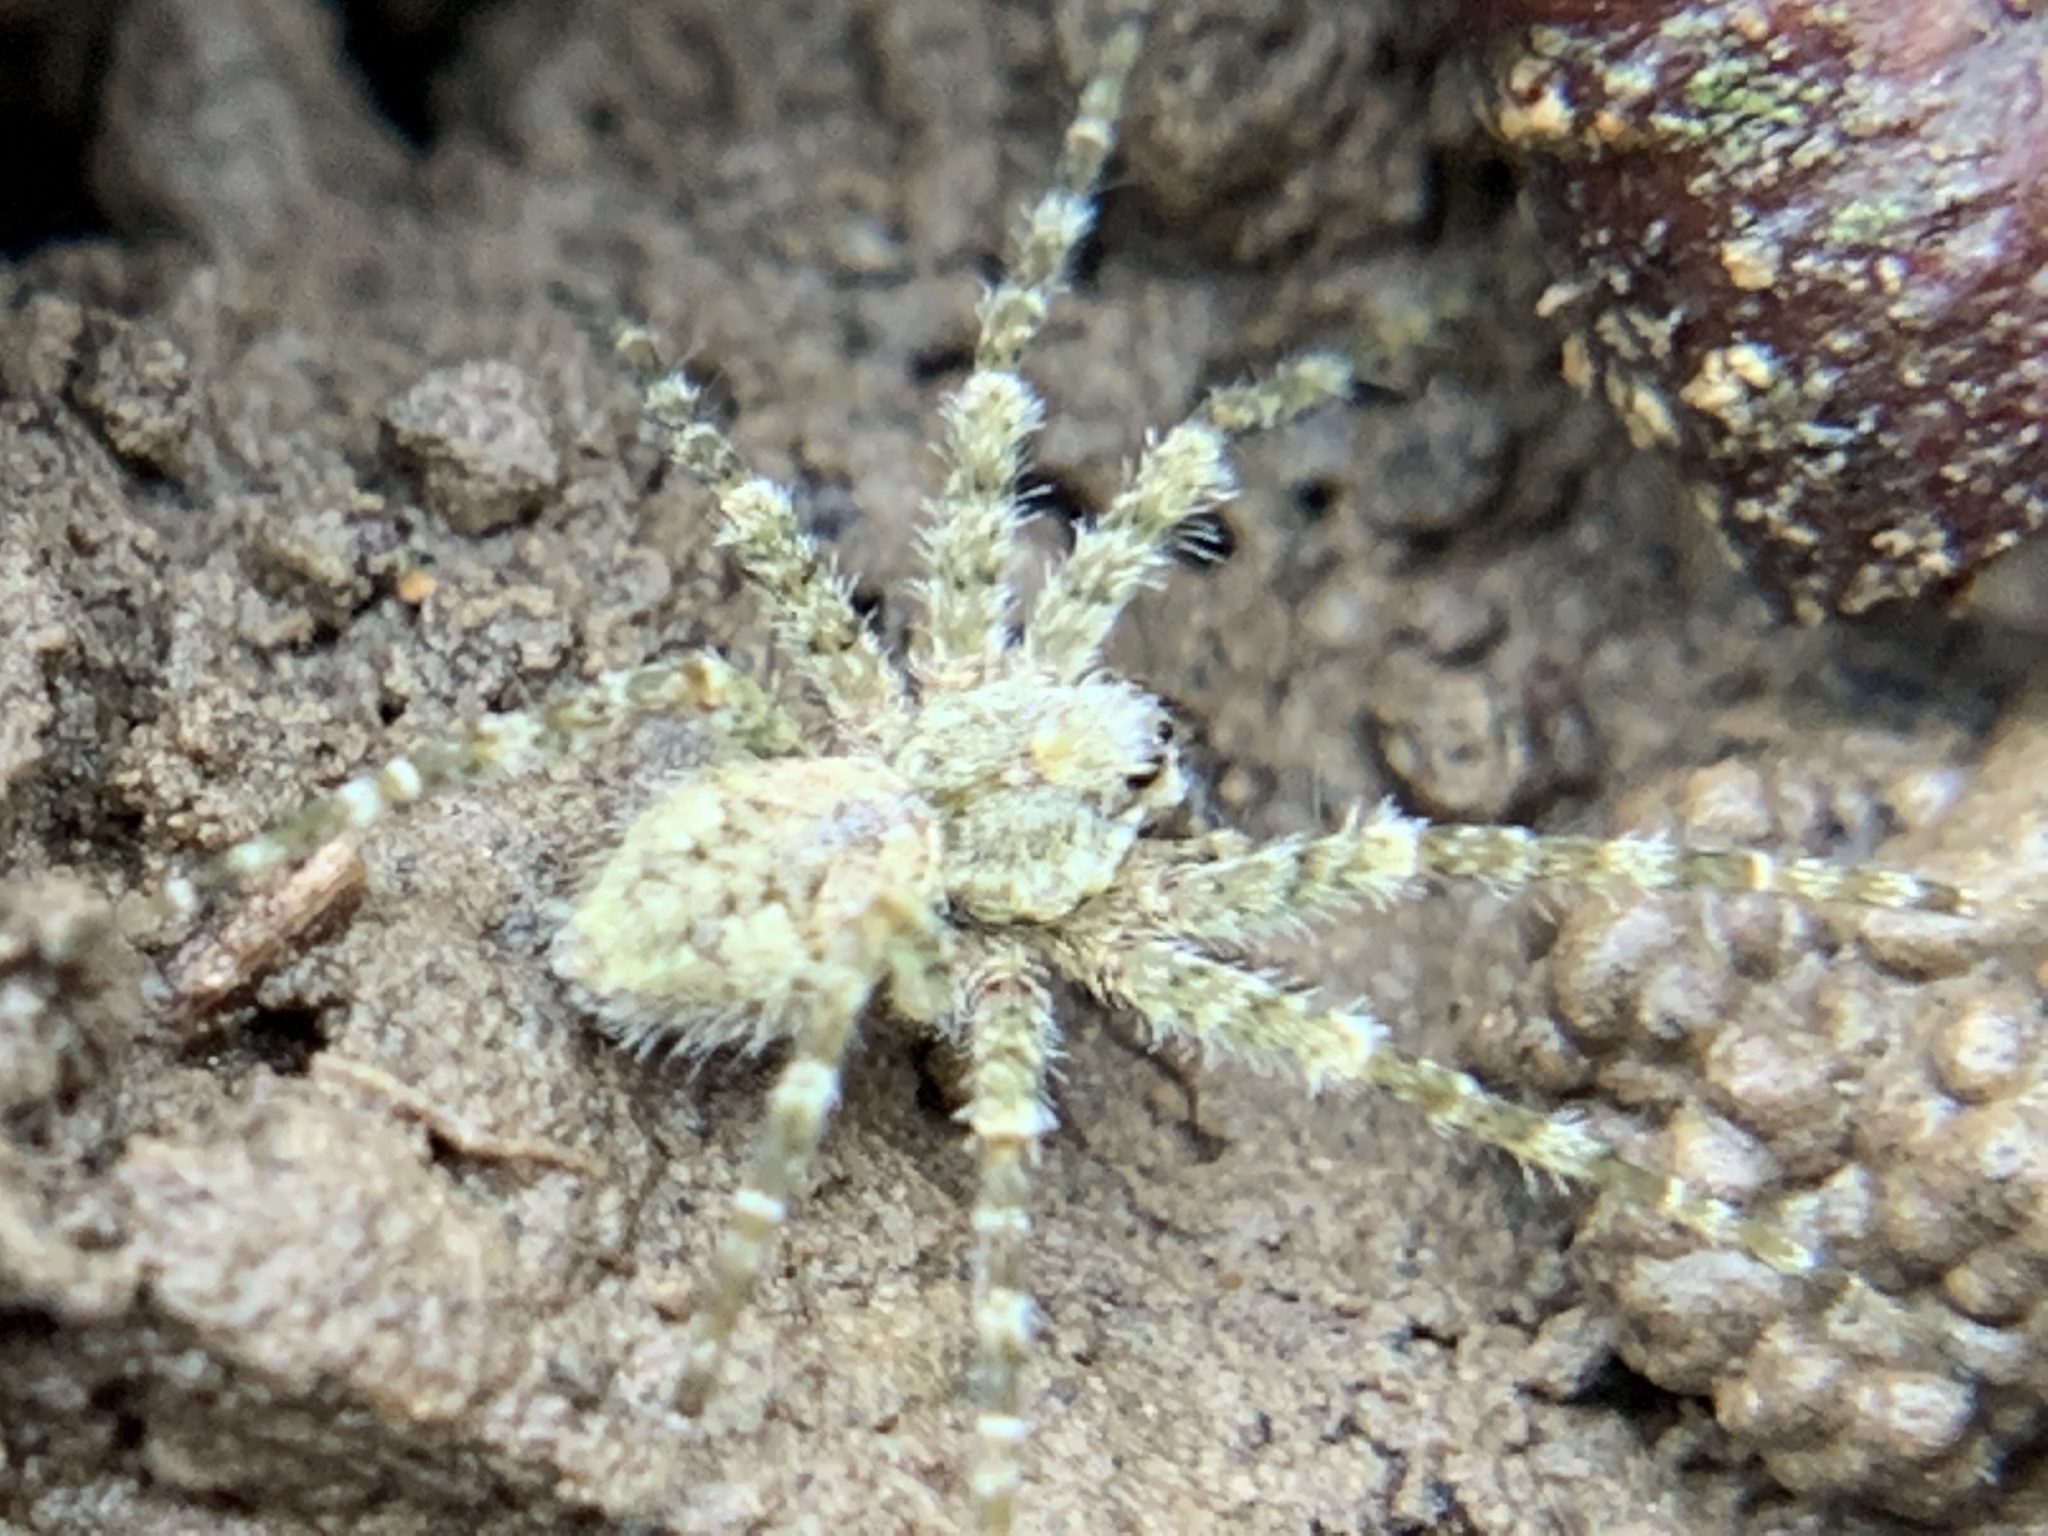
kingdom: Animalia
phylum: Arthropoda
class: Arachnida
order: Araneae
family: Pisauridae
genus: Dolomedes
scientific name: Dolomedes albineus
